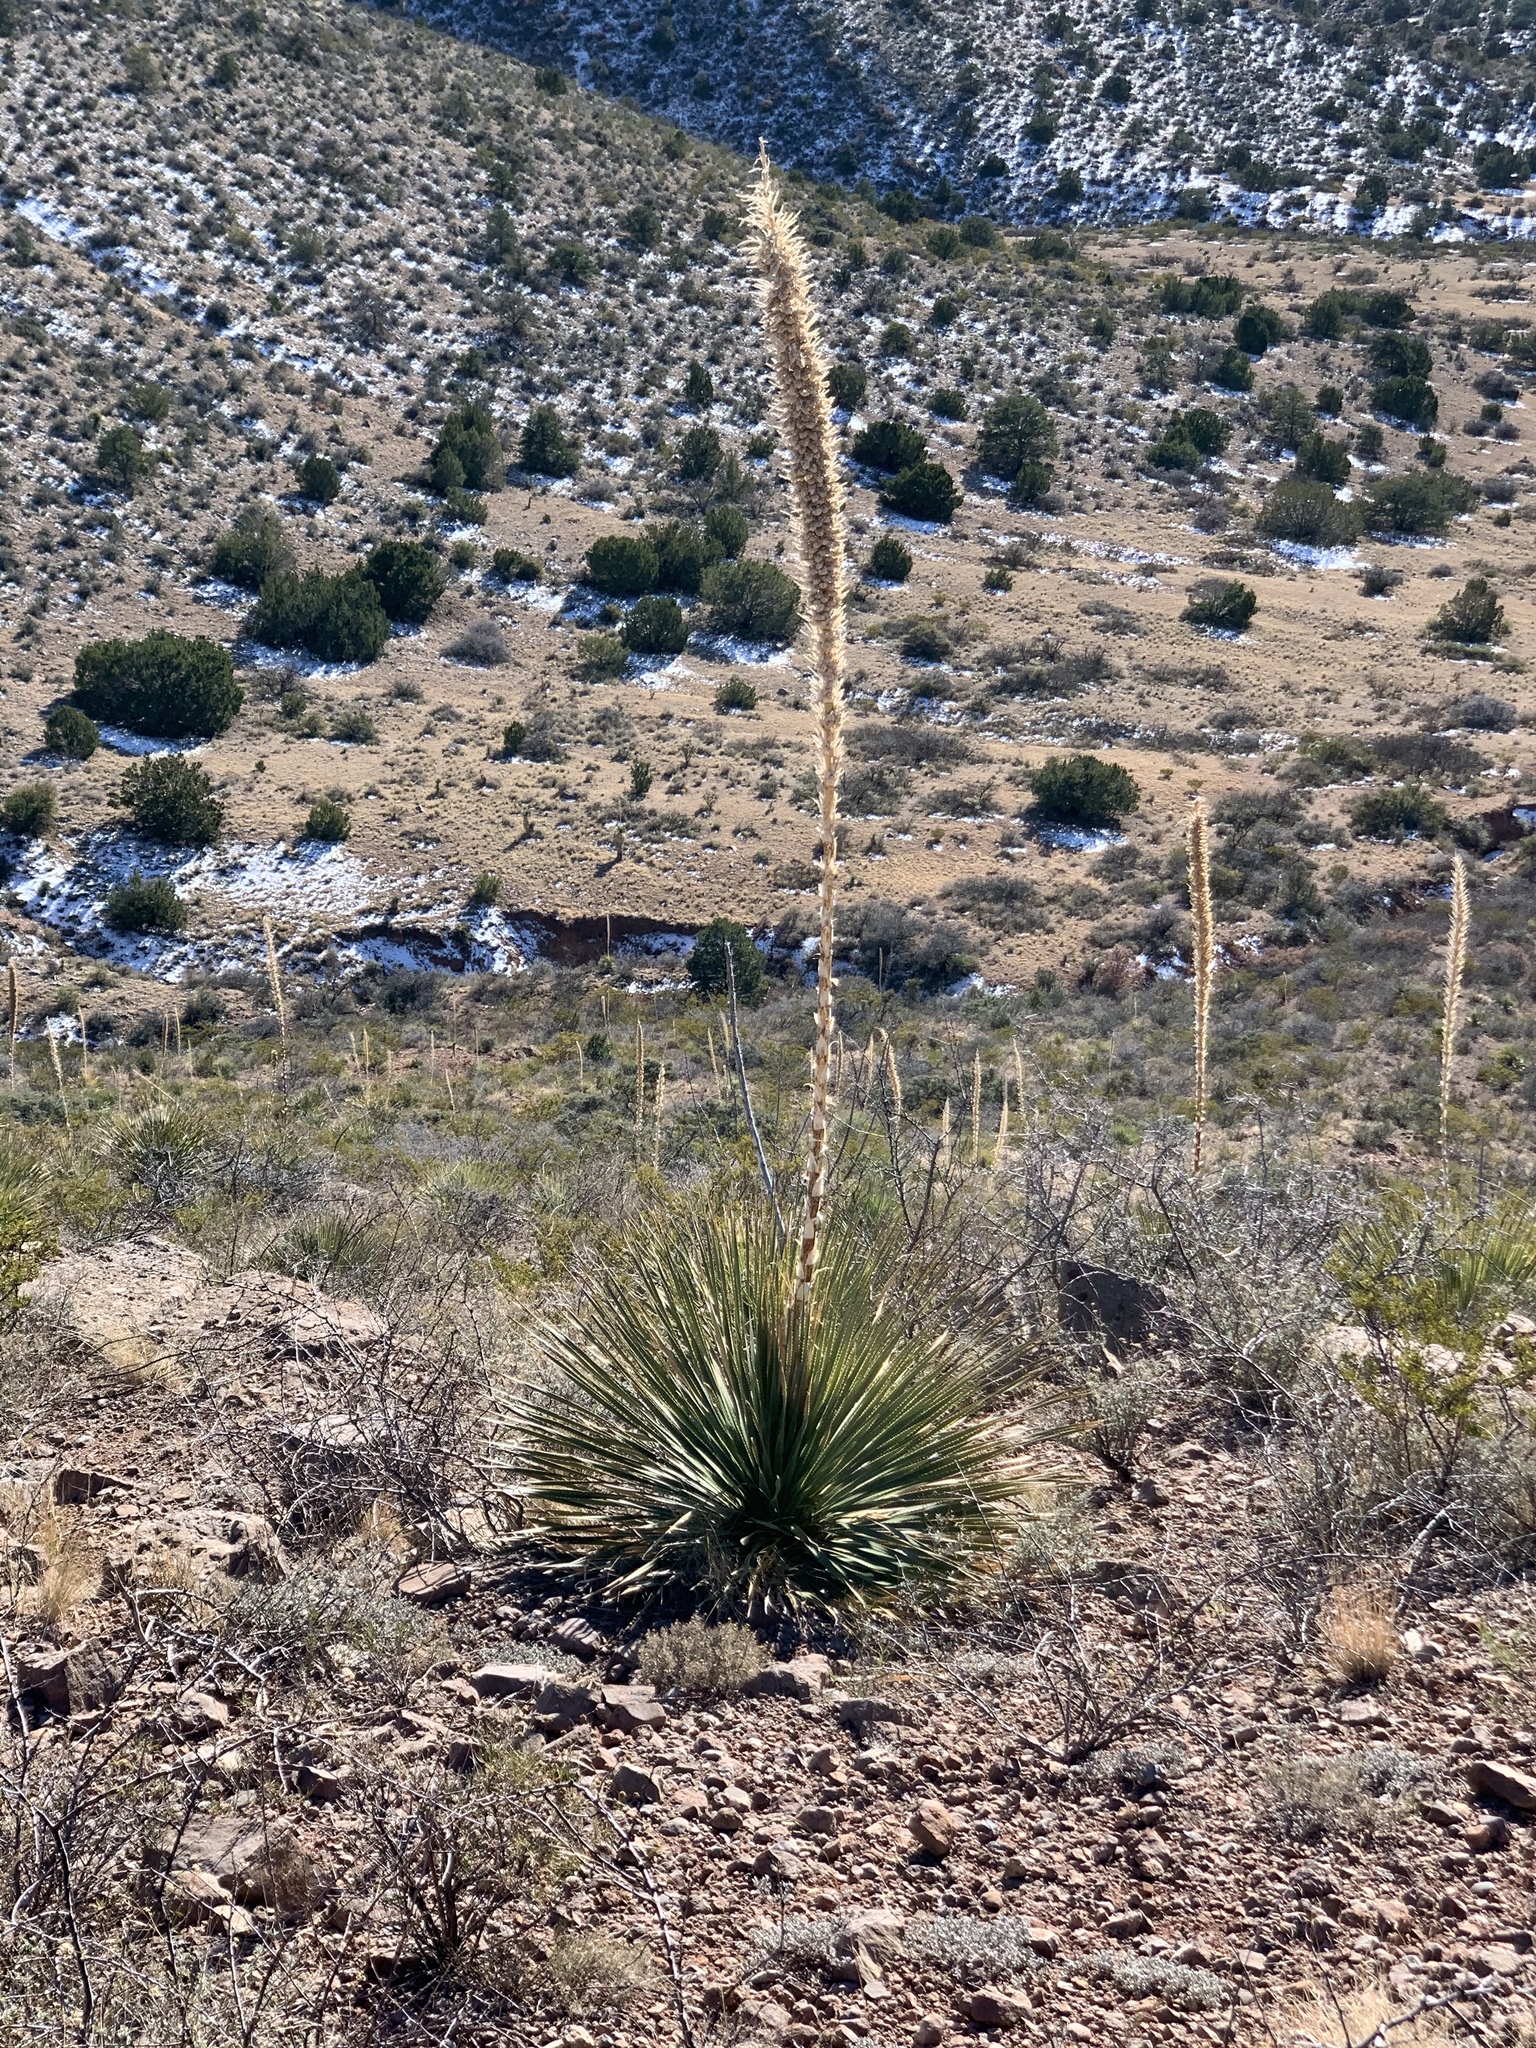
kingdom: Plantae
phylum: Tracheophyta
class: Liliopsida
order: Asparagales
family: Asparagaceae
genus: Dasylirion
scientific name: Dasylirion wheeleri
